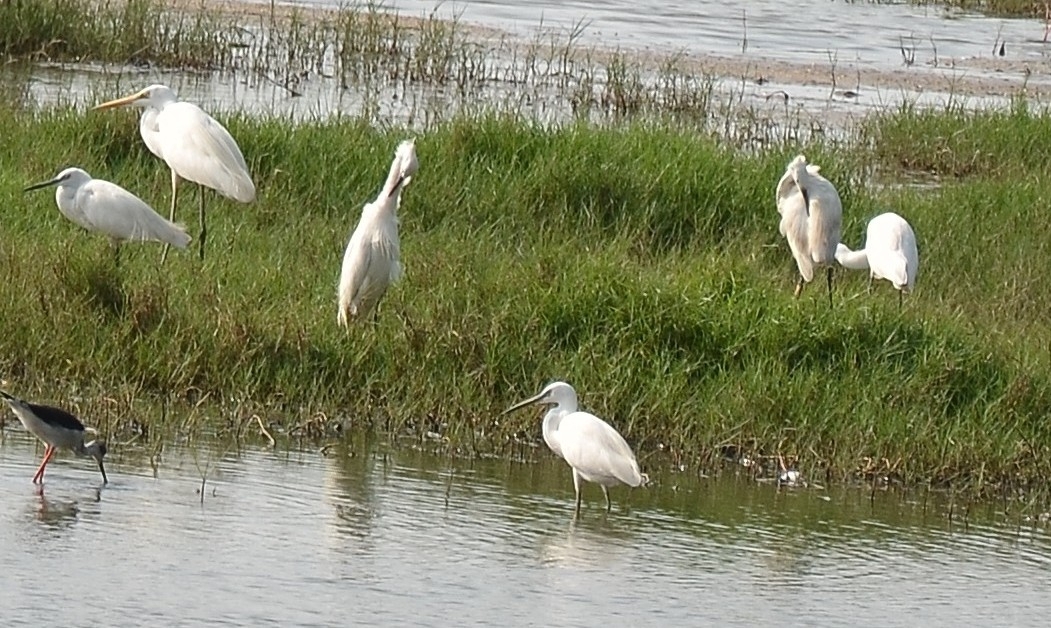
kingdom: Animalia
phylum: Chordata
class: Aves
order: Pelecaniformes
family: Ardeidae
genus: Egretta
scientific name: Egretta garzetta
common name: Little egret
